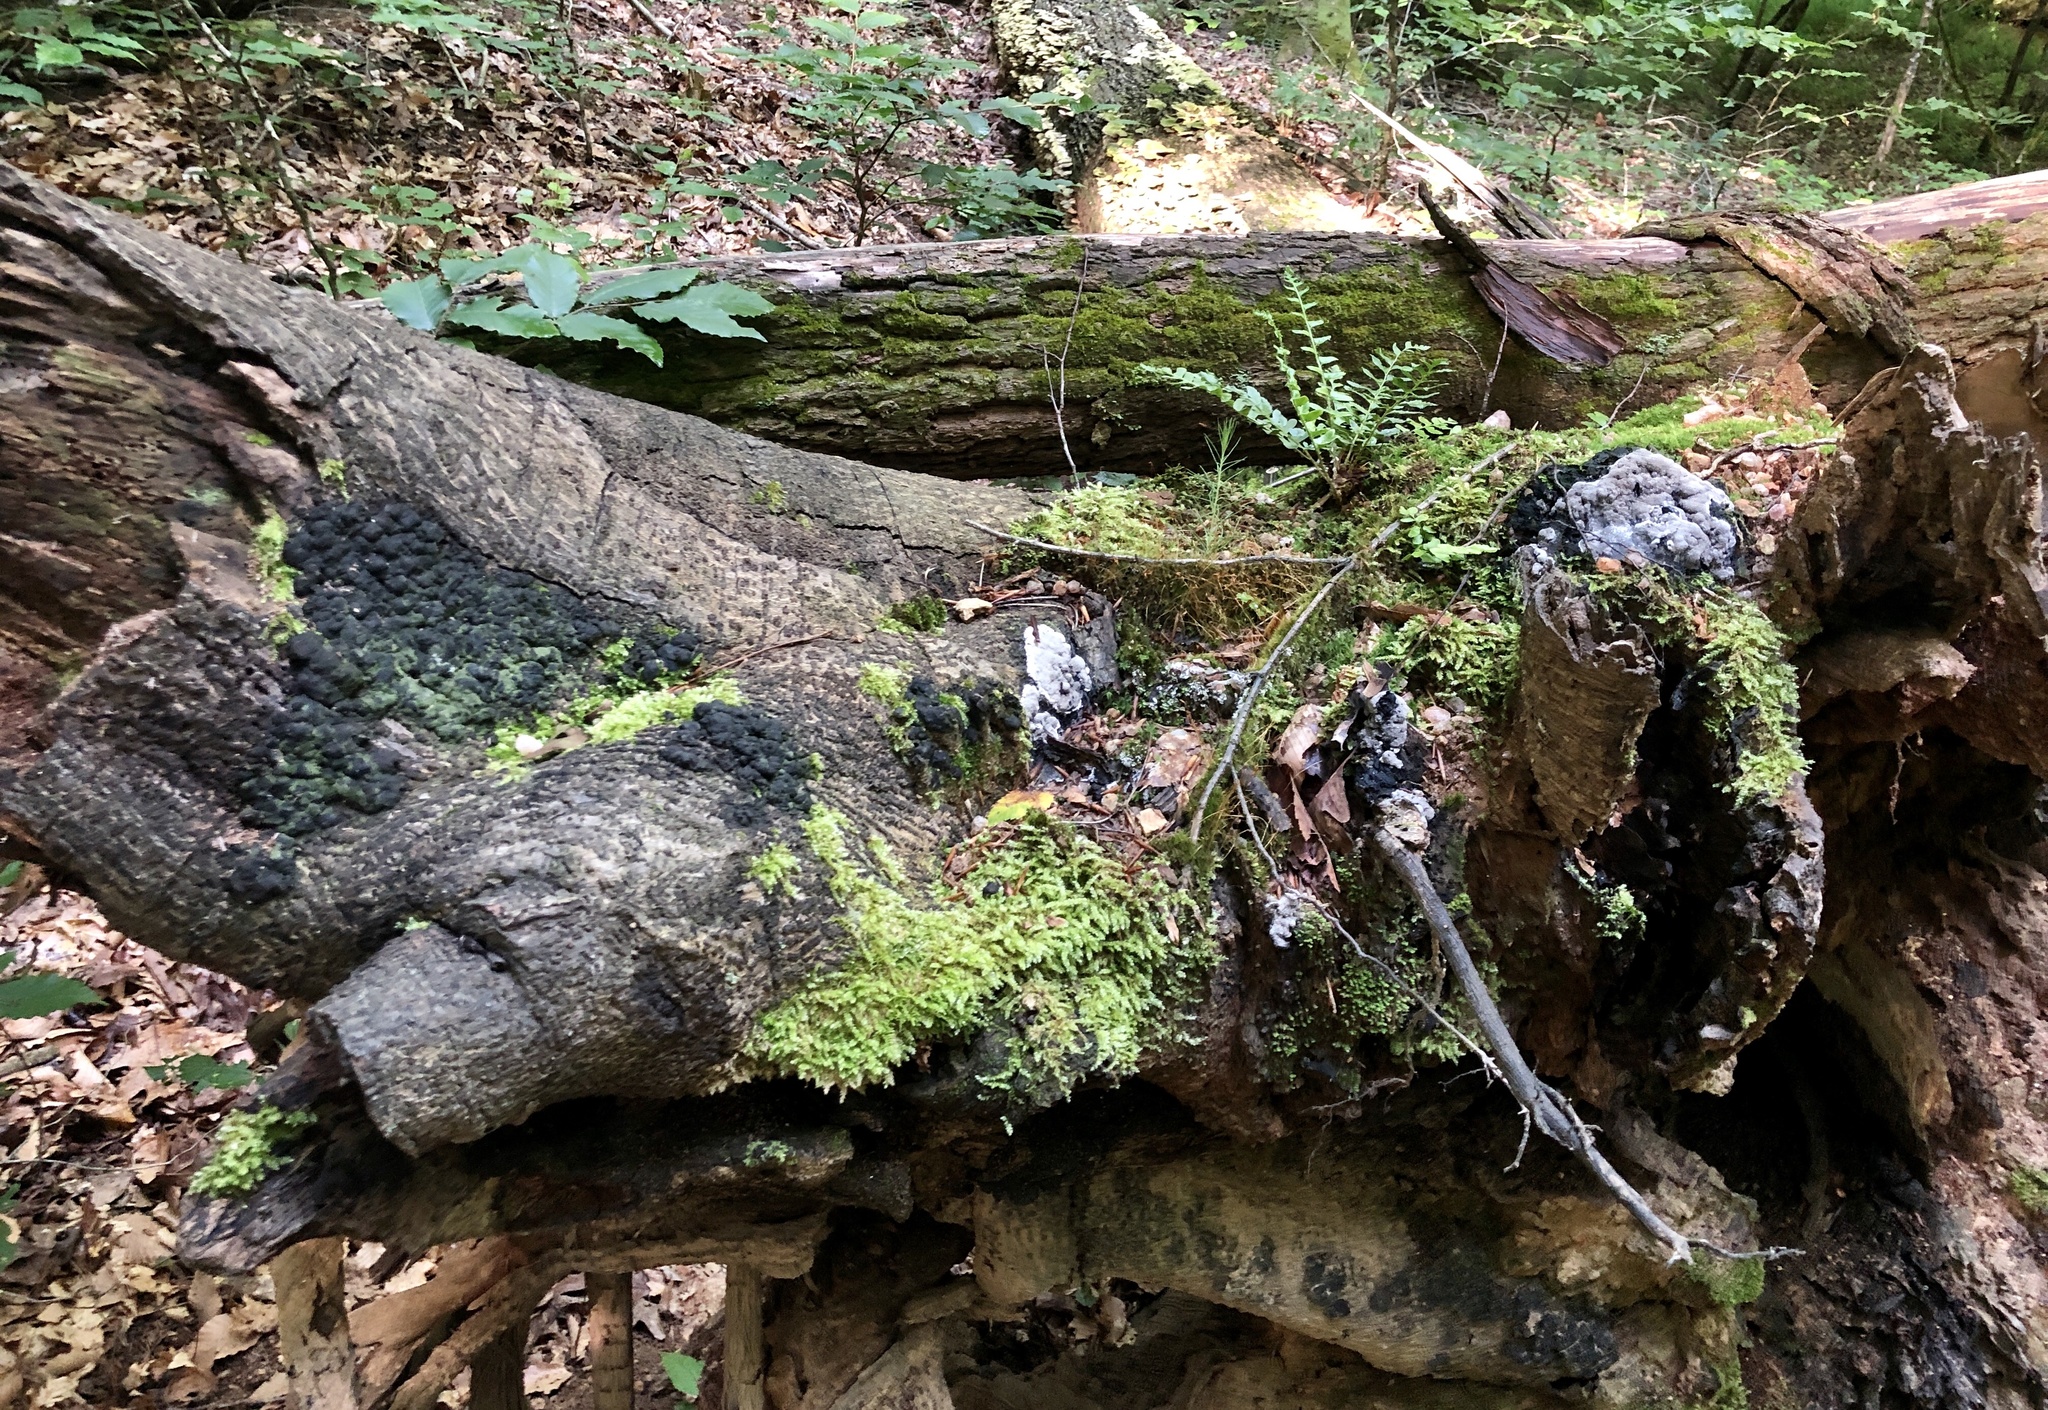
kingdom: Fungi
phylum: Ascomycota
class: Sordariomycetes
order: Xylariales
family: Xylariaceae
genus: Kretzschmaria
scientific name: Kretzschmaria deusta
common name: Brittle cinder
